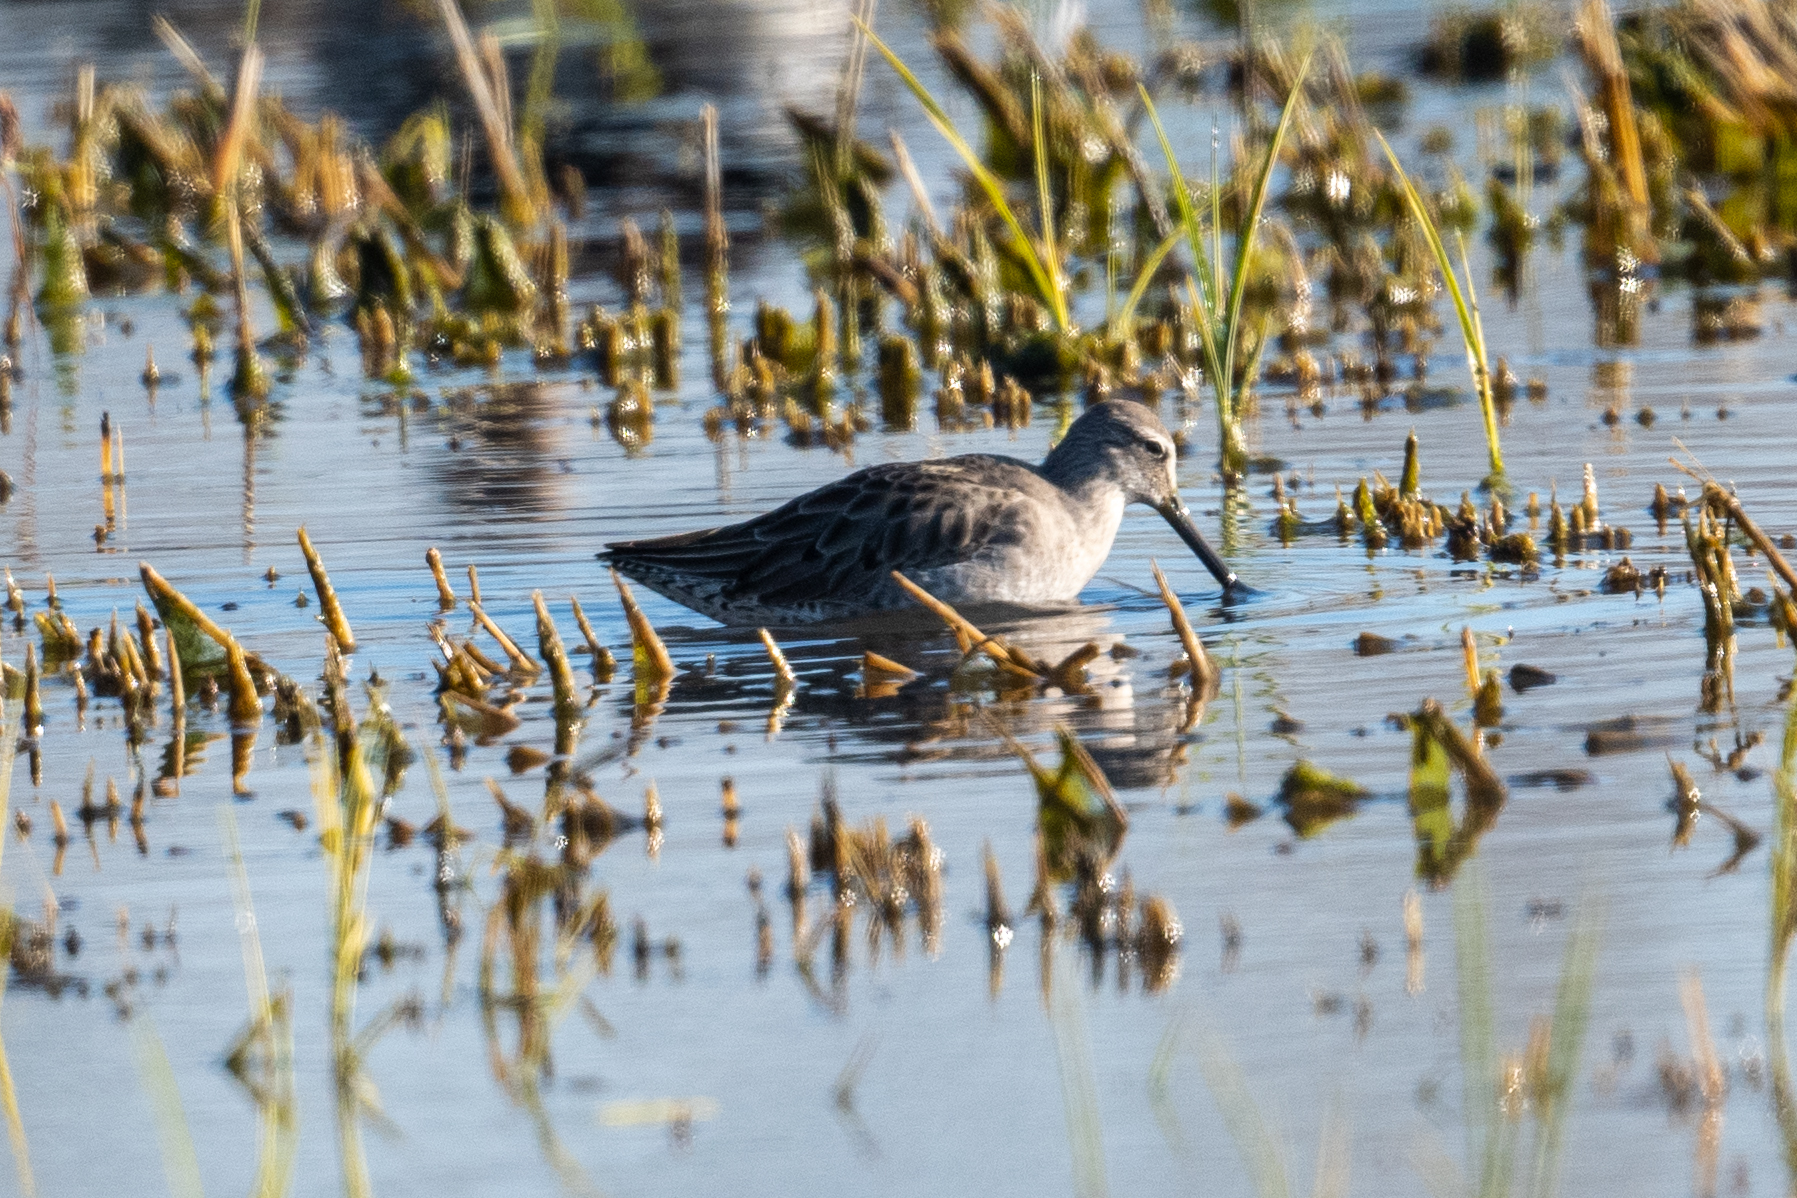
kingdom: Animalia
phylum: Chordata
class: Aves
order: Charadriiformes
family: Scolopacidae
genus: Limnodromus
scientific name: Limnodromus scolopaceus
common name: Long-billed dowitcher
